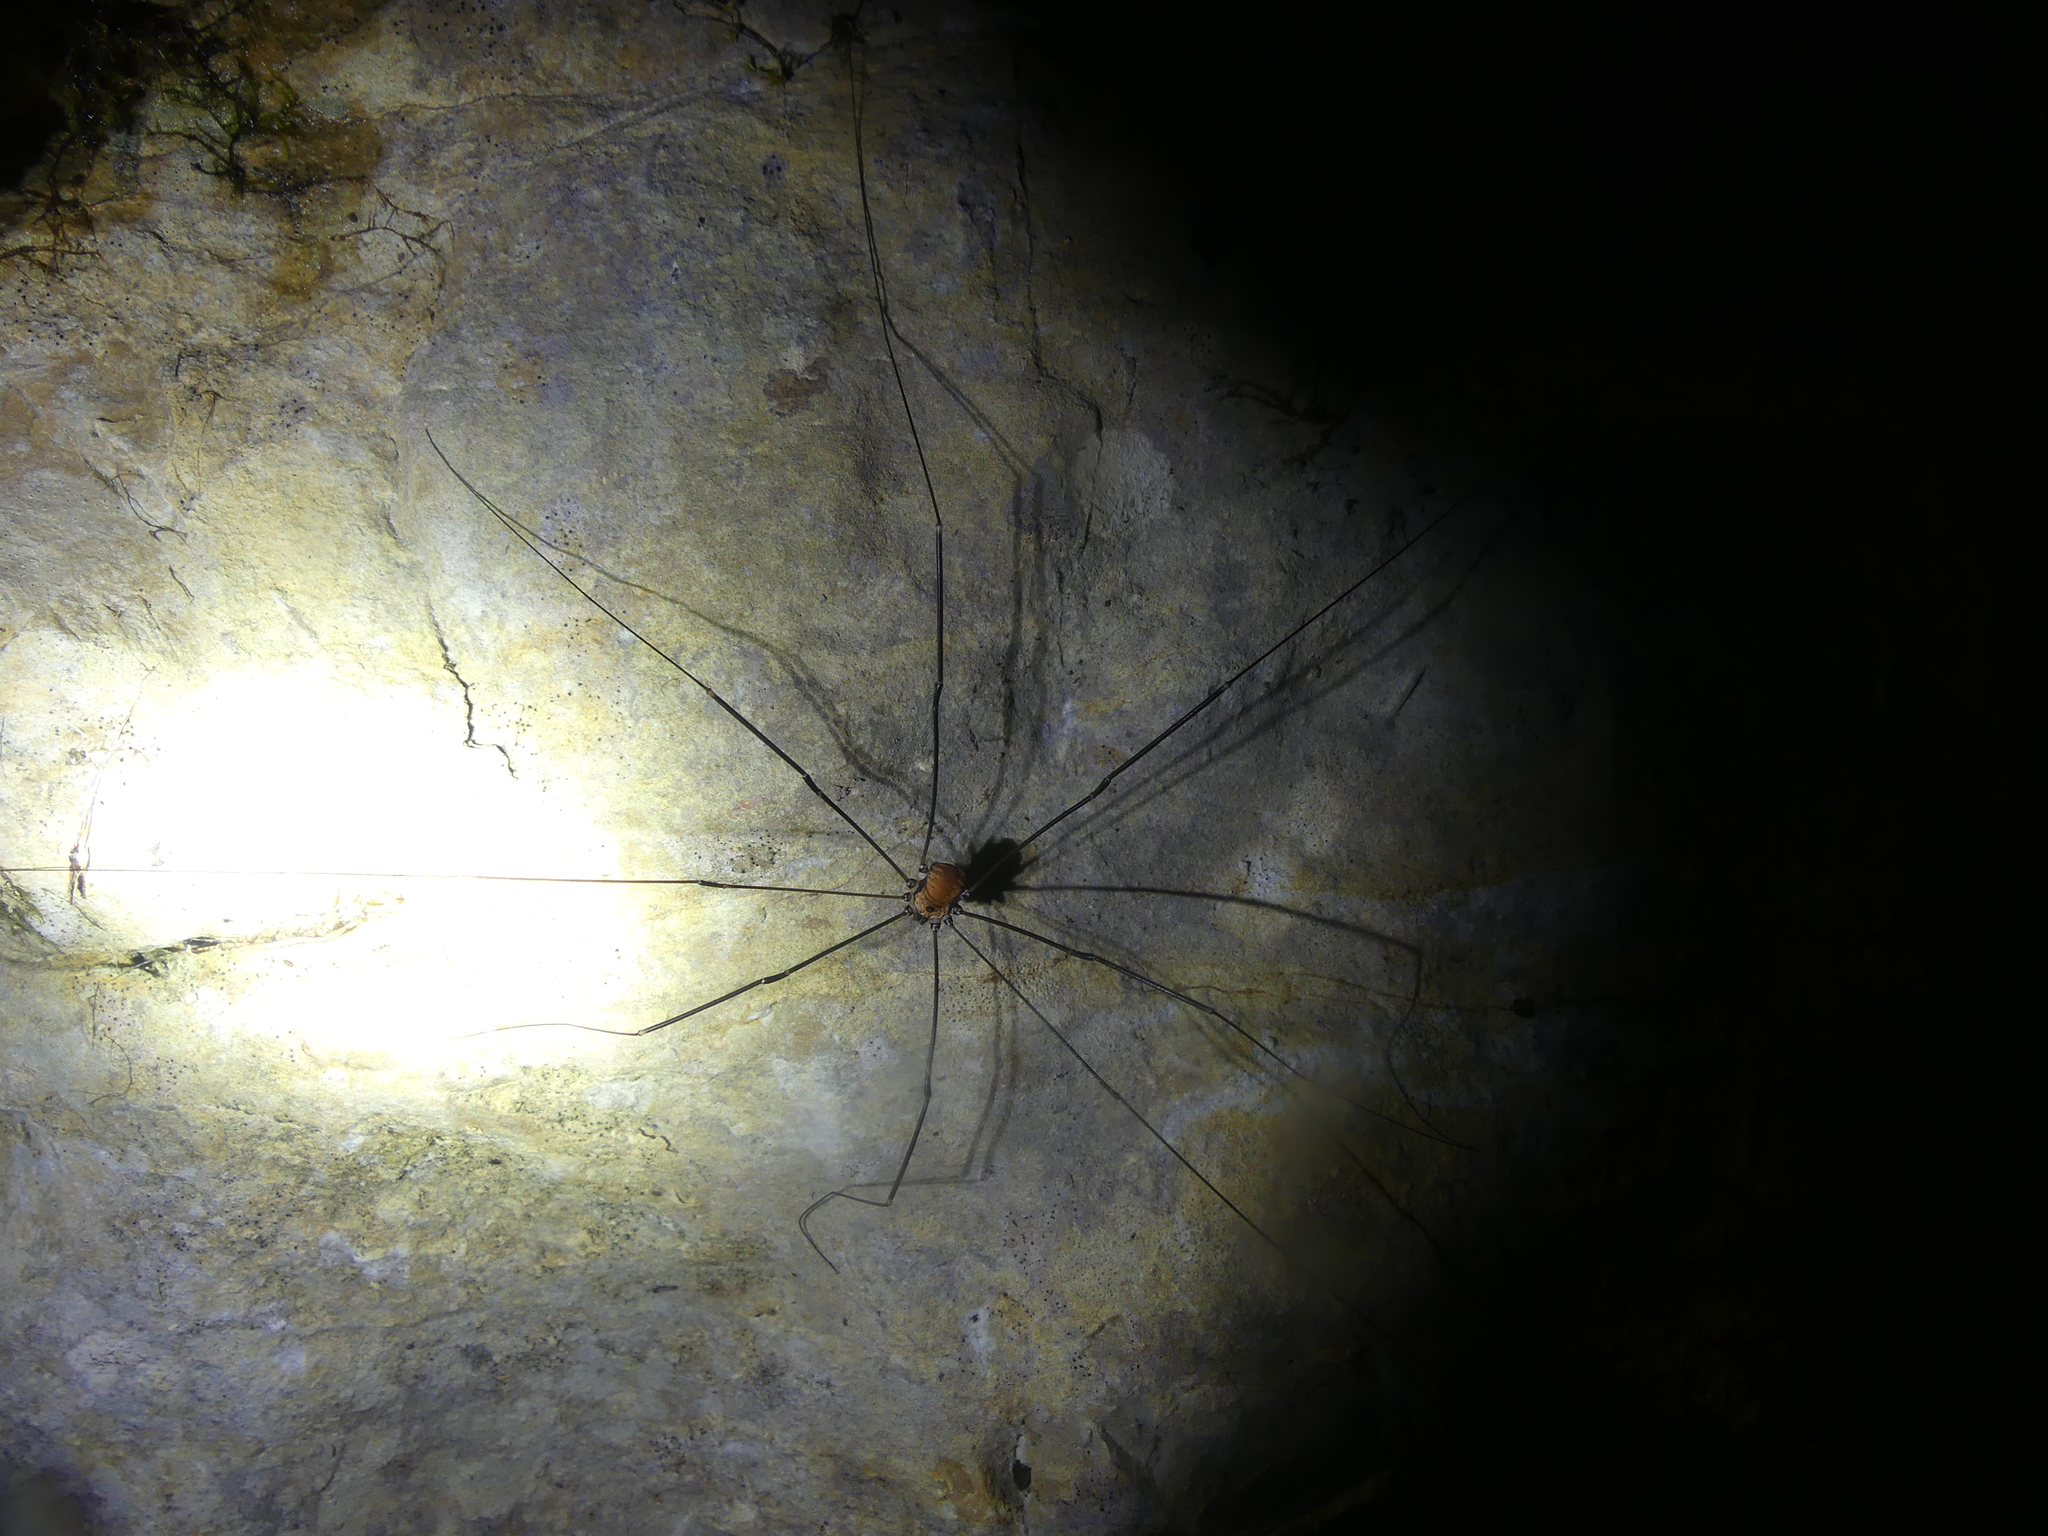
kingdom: Animalia
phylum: Arthropoda
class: Arachnida
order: Opiliones
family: Sclerosomatidae
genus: Leiobunum
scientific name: Leiobunum limbatum
